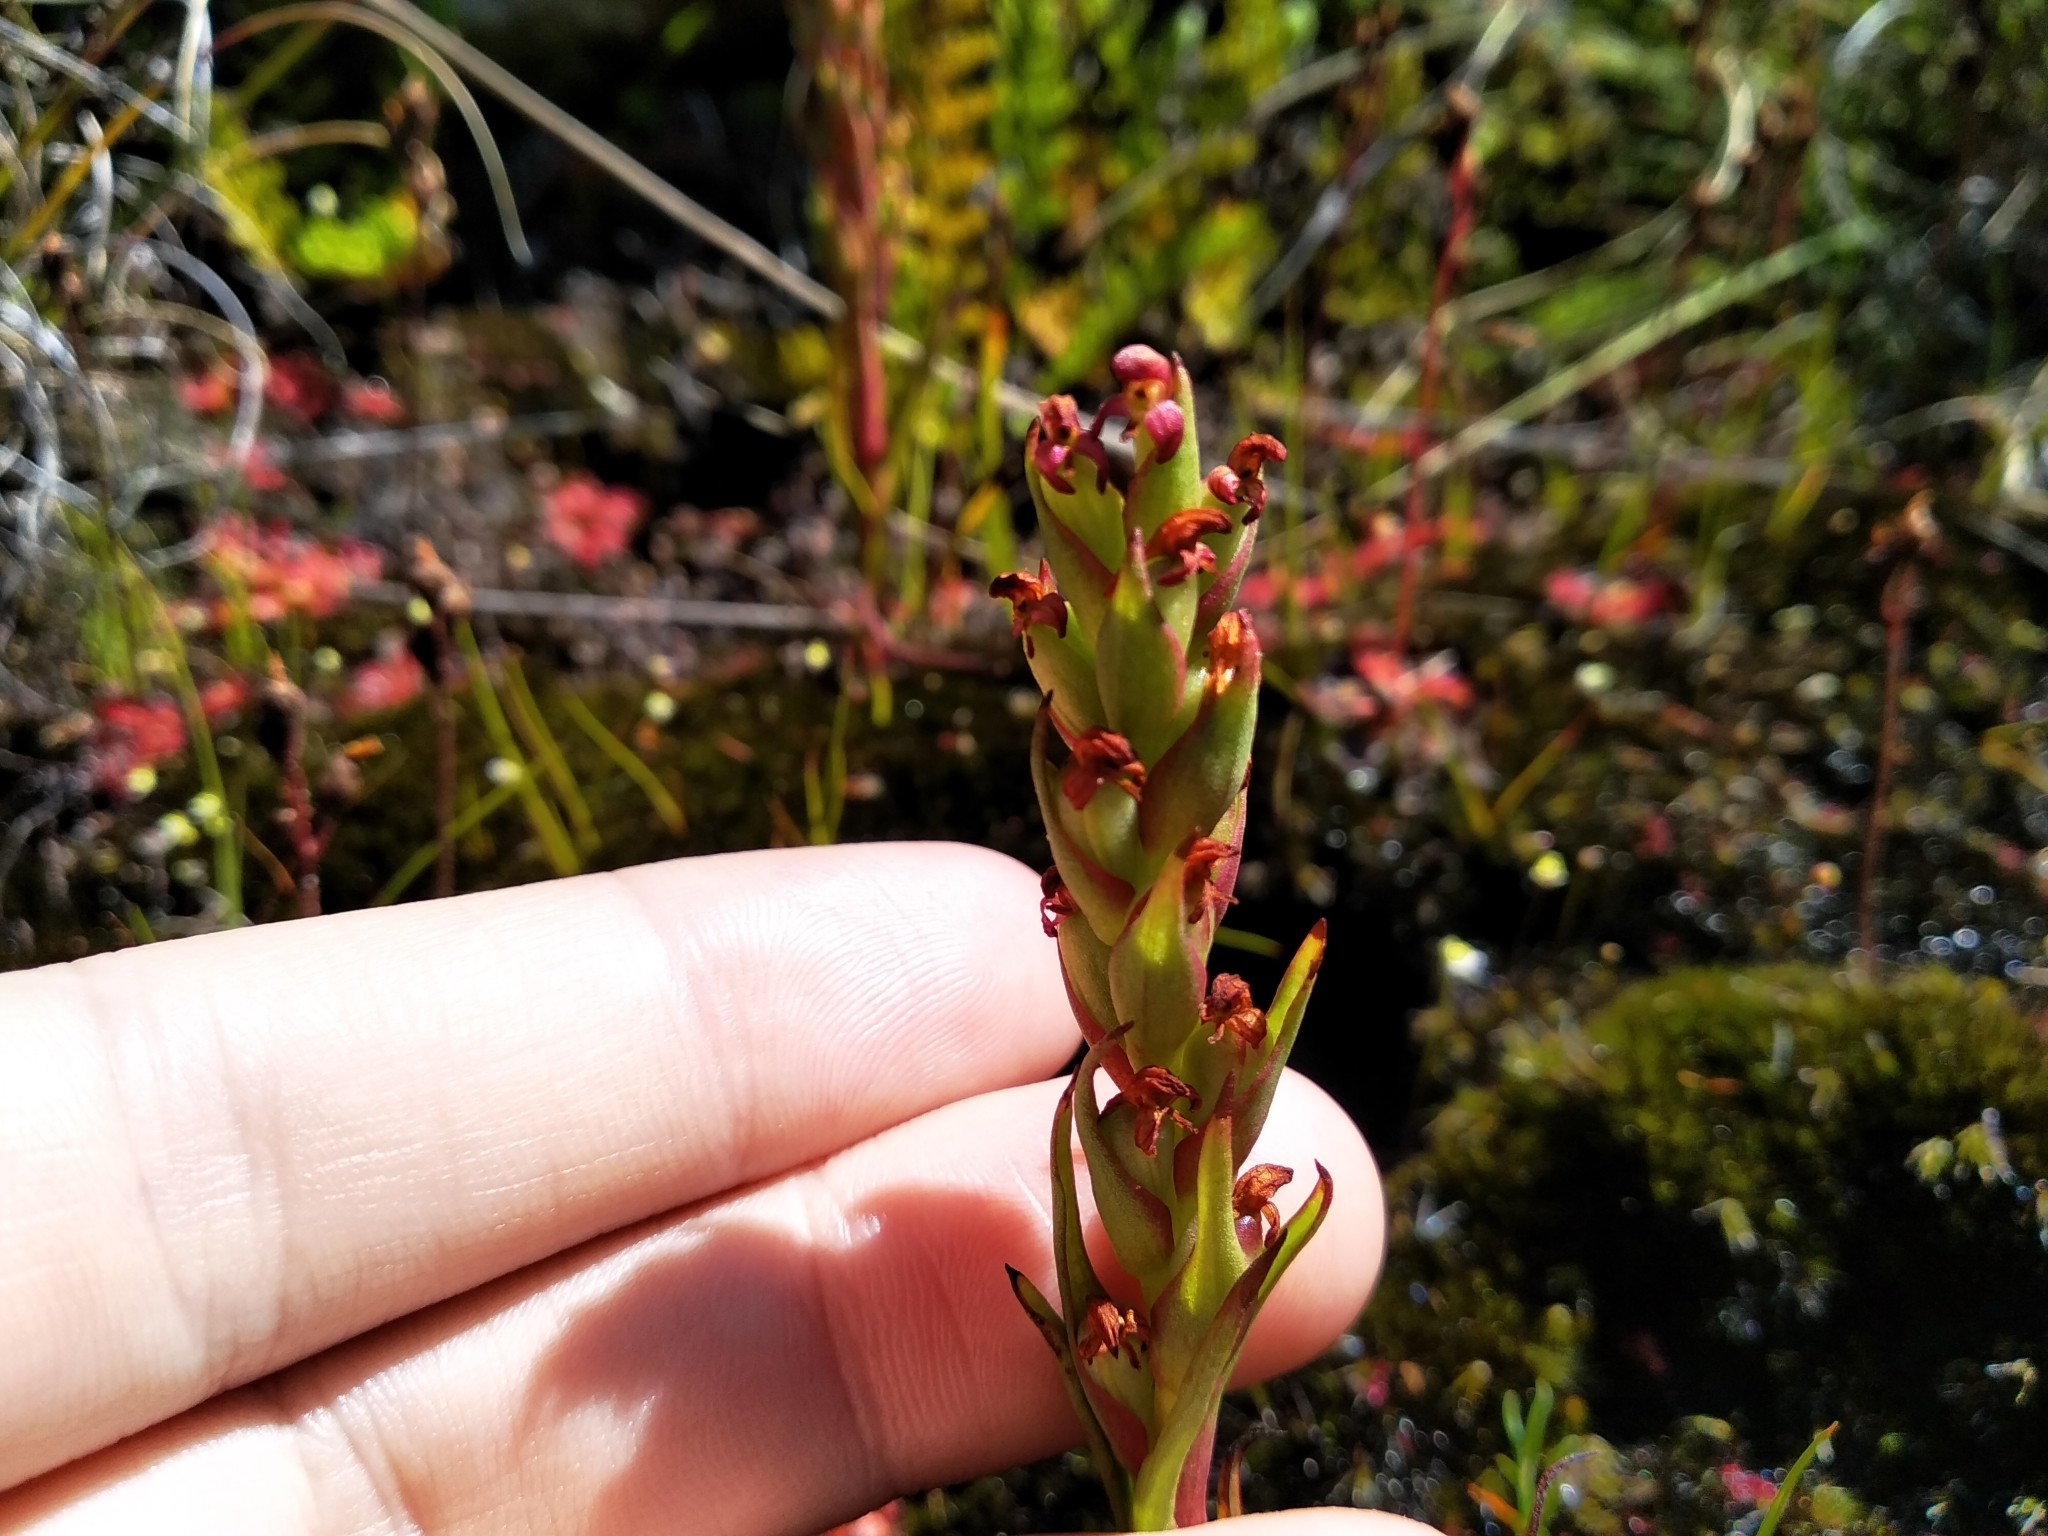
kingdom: Plantae
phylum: Tracheophyta
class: Liliopsida
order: Asparagales
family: Orchidaceae
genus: Disa
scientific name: Disa bracteata
